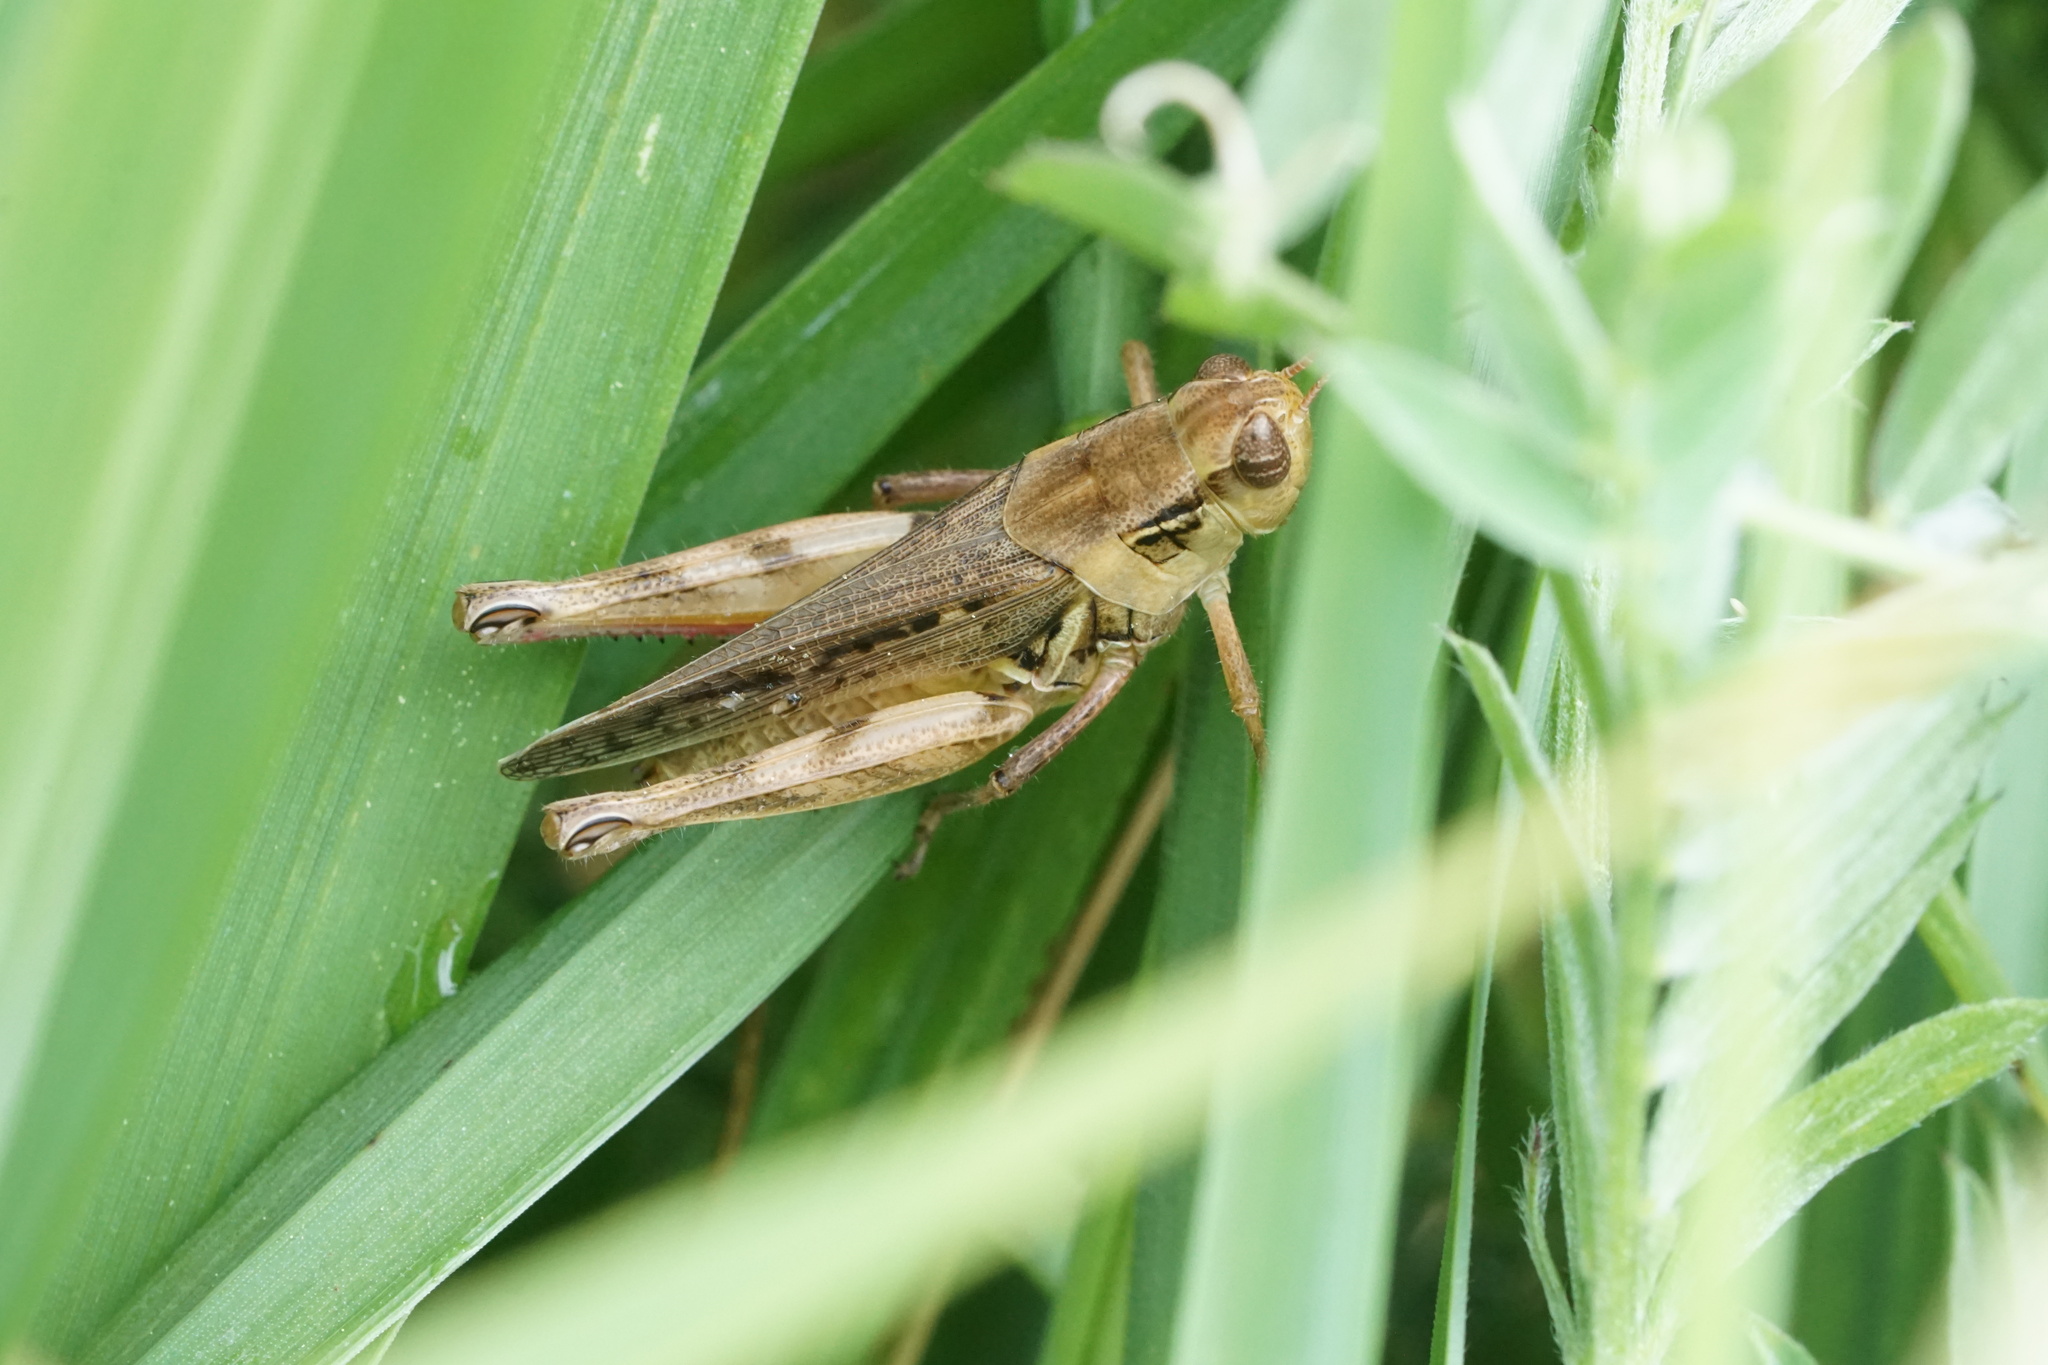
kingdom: Animalia
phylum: Arthropoda
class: Insecta
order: Orthoptera
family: Acrididae
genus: Melanoplus
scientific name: Melanoplus confusus
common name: Little pasture locust
